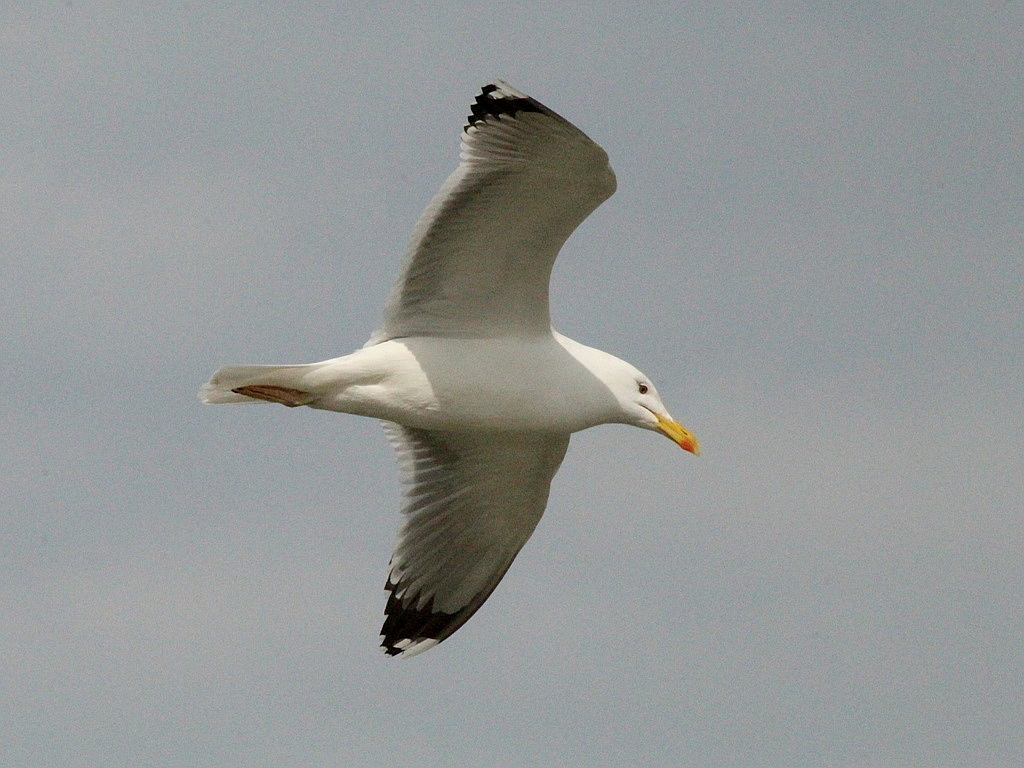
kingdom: Animalia
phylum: Chordata
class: Aves
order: Charadriiformes
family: Laridae
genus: Larus
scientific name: Larus cachinnans
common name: Caspian gull
